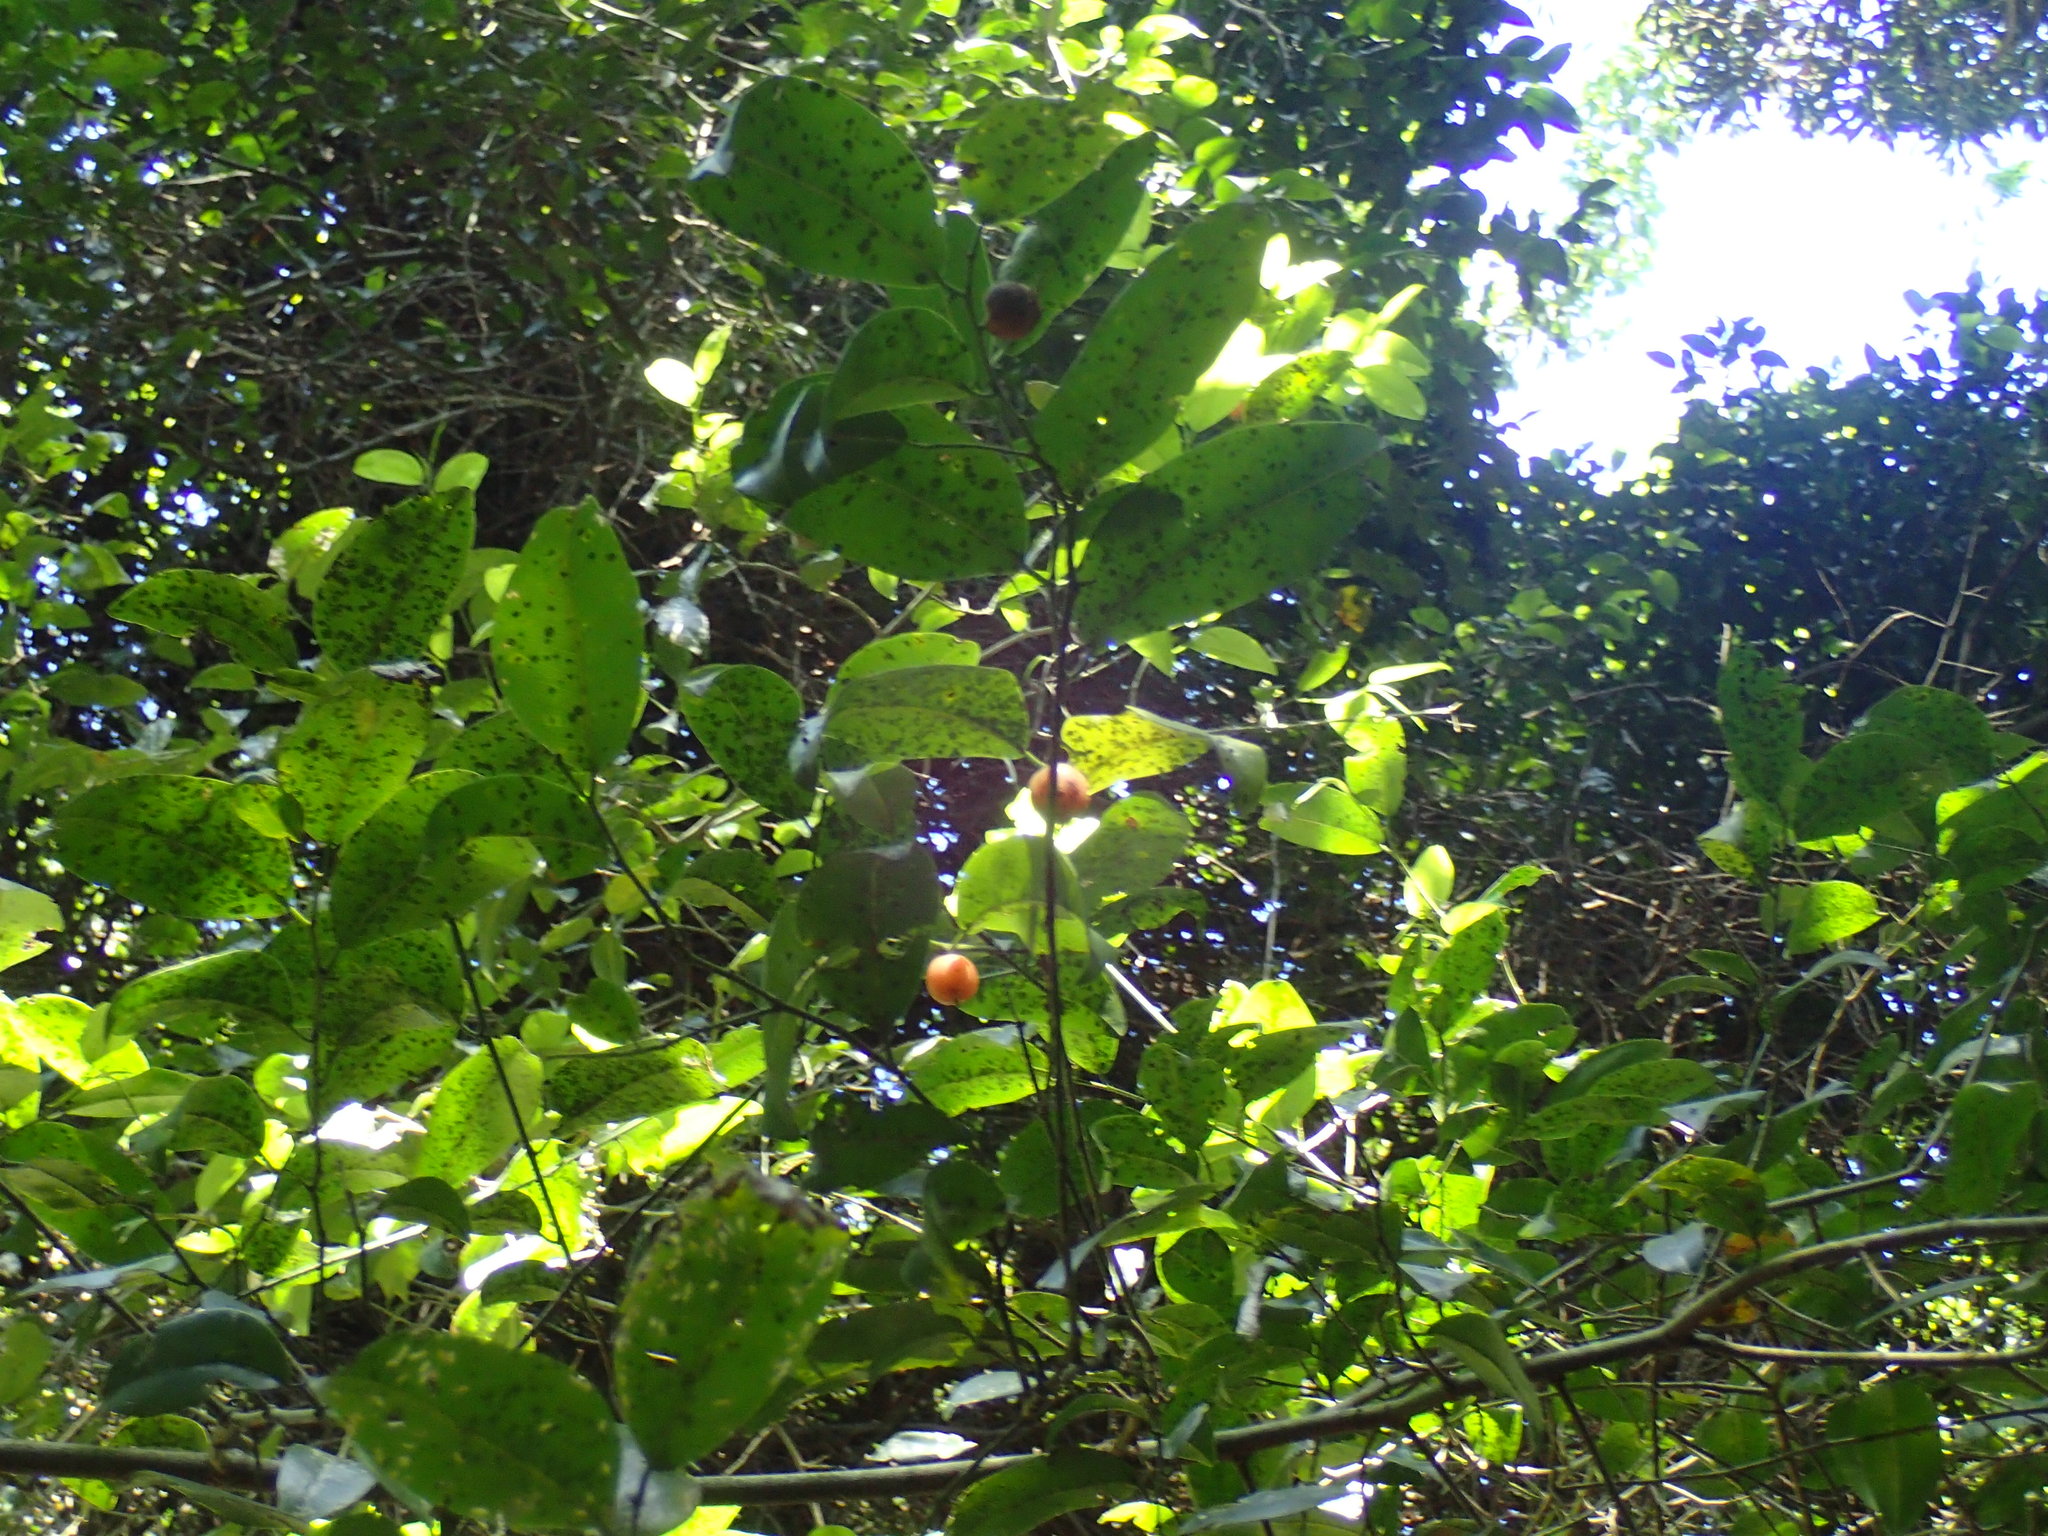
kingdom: Plantae
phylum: Tracheophyta
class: Magnoliopsida
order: Rosales
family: Cannabaceae
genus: Chaetachme
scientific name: Chaetachme aristata
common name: Thorny elm
